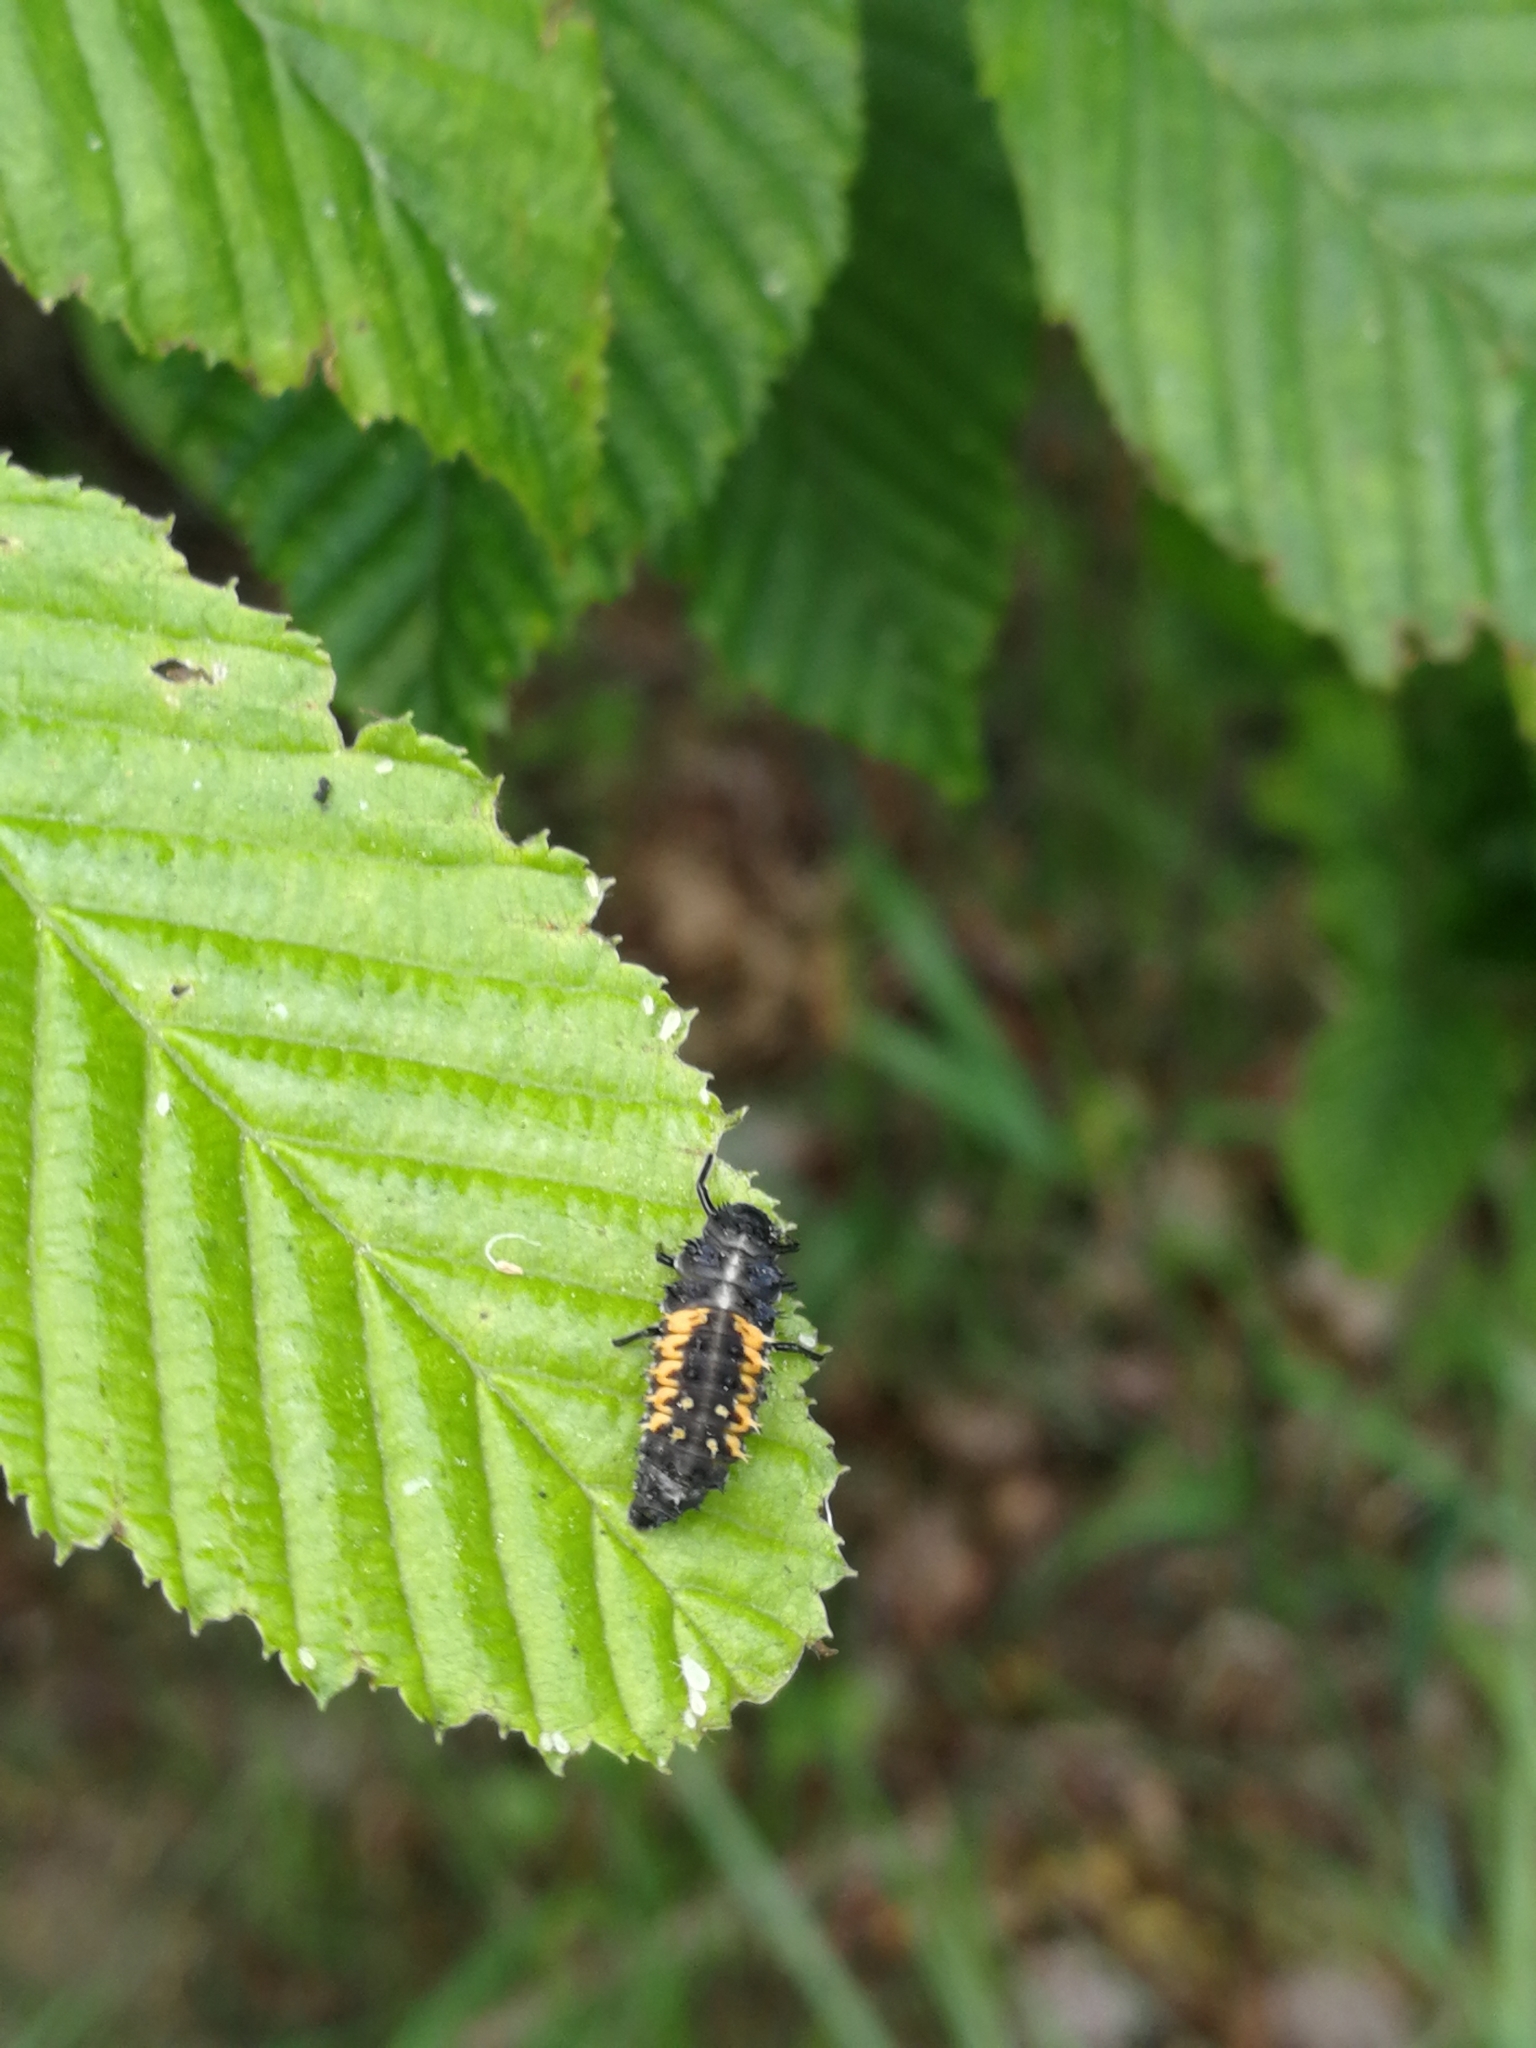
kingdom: Animalia
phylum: Arthropoda
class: Insecta
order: Coleoptera
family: Coccinellidae
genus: Harmonia
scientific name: Harmonia axyridis
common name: Harlequin ladybird
